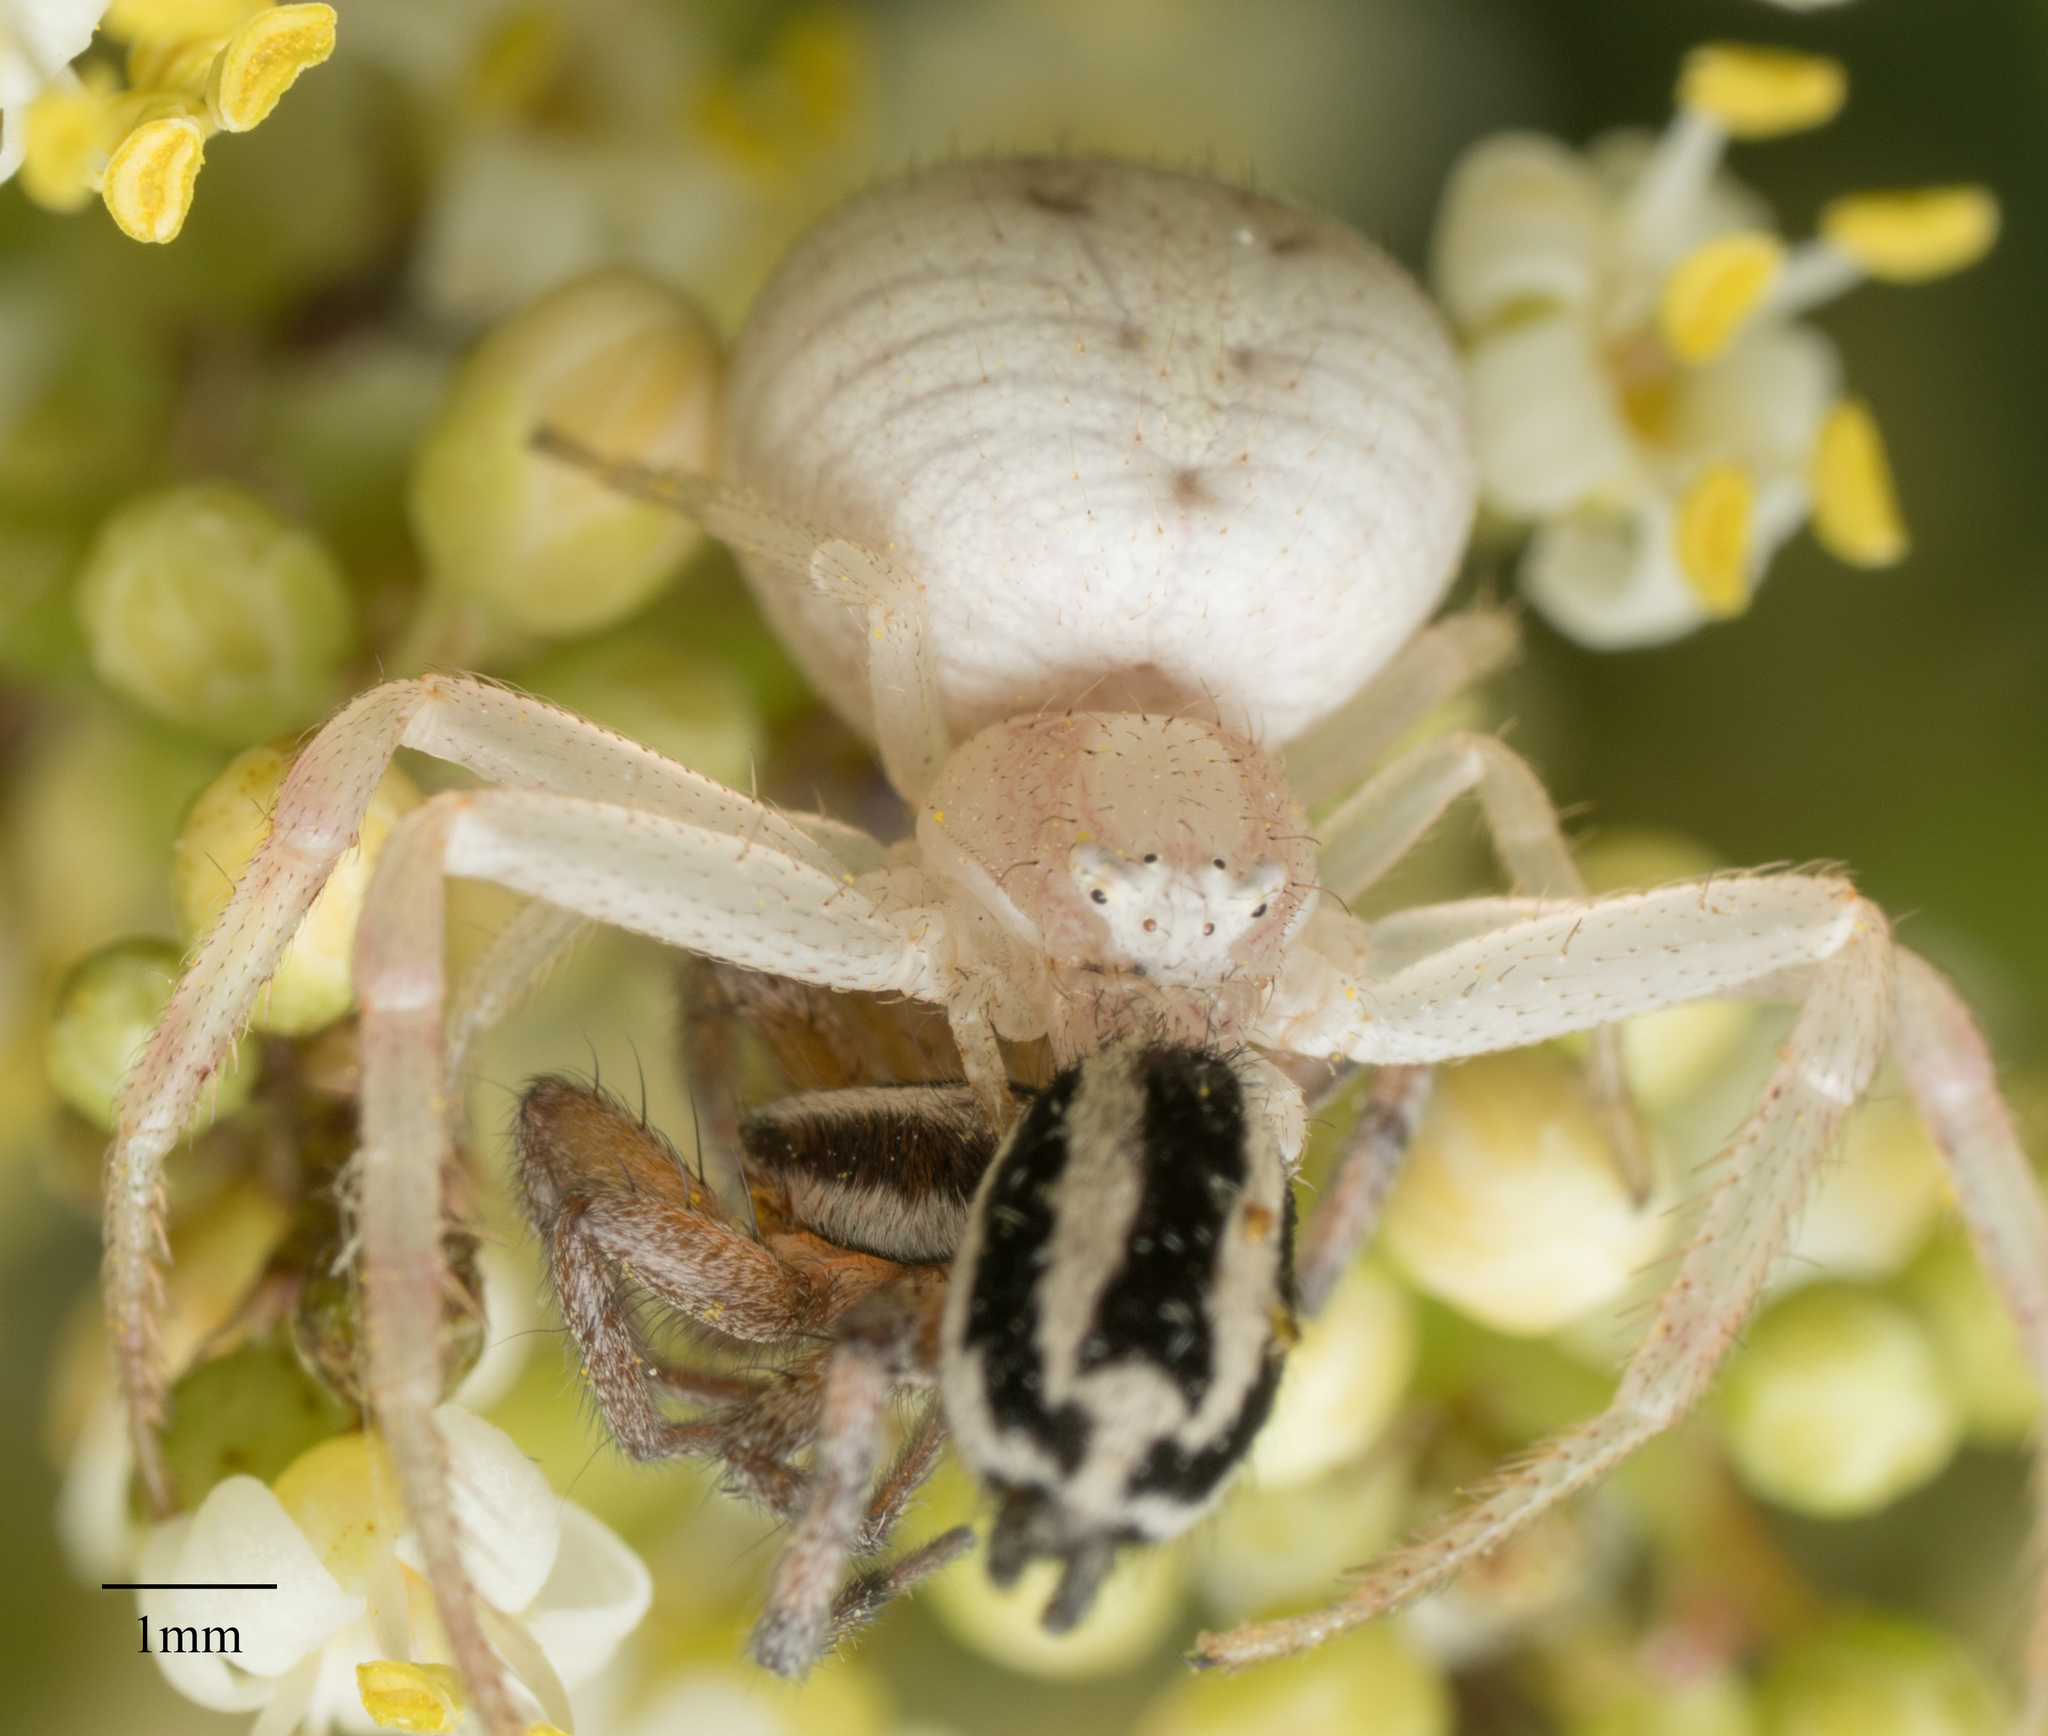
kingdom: Animalia
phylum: Arthropoda
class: Arachnida
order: Araneae
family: Gnaphosidae
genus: Cesonia
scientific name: Cesonia trivittata
